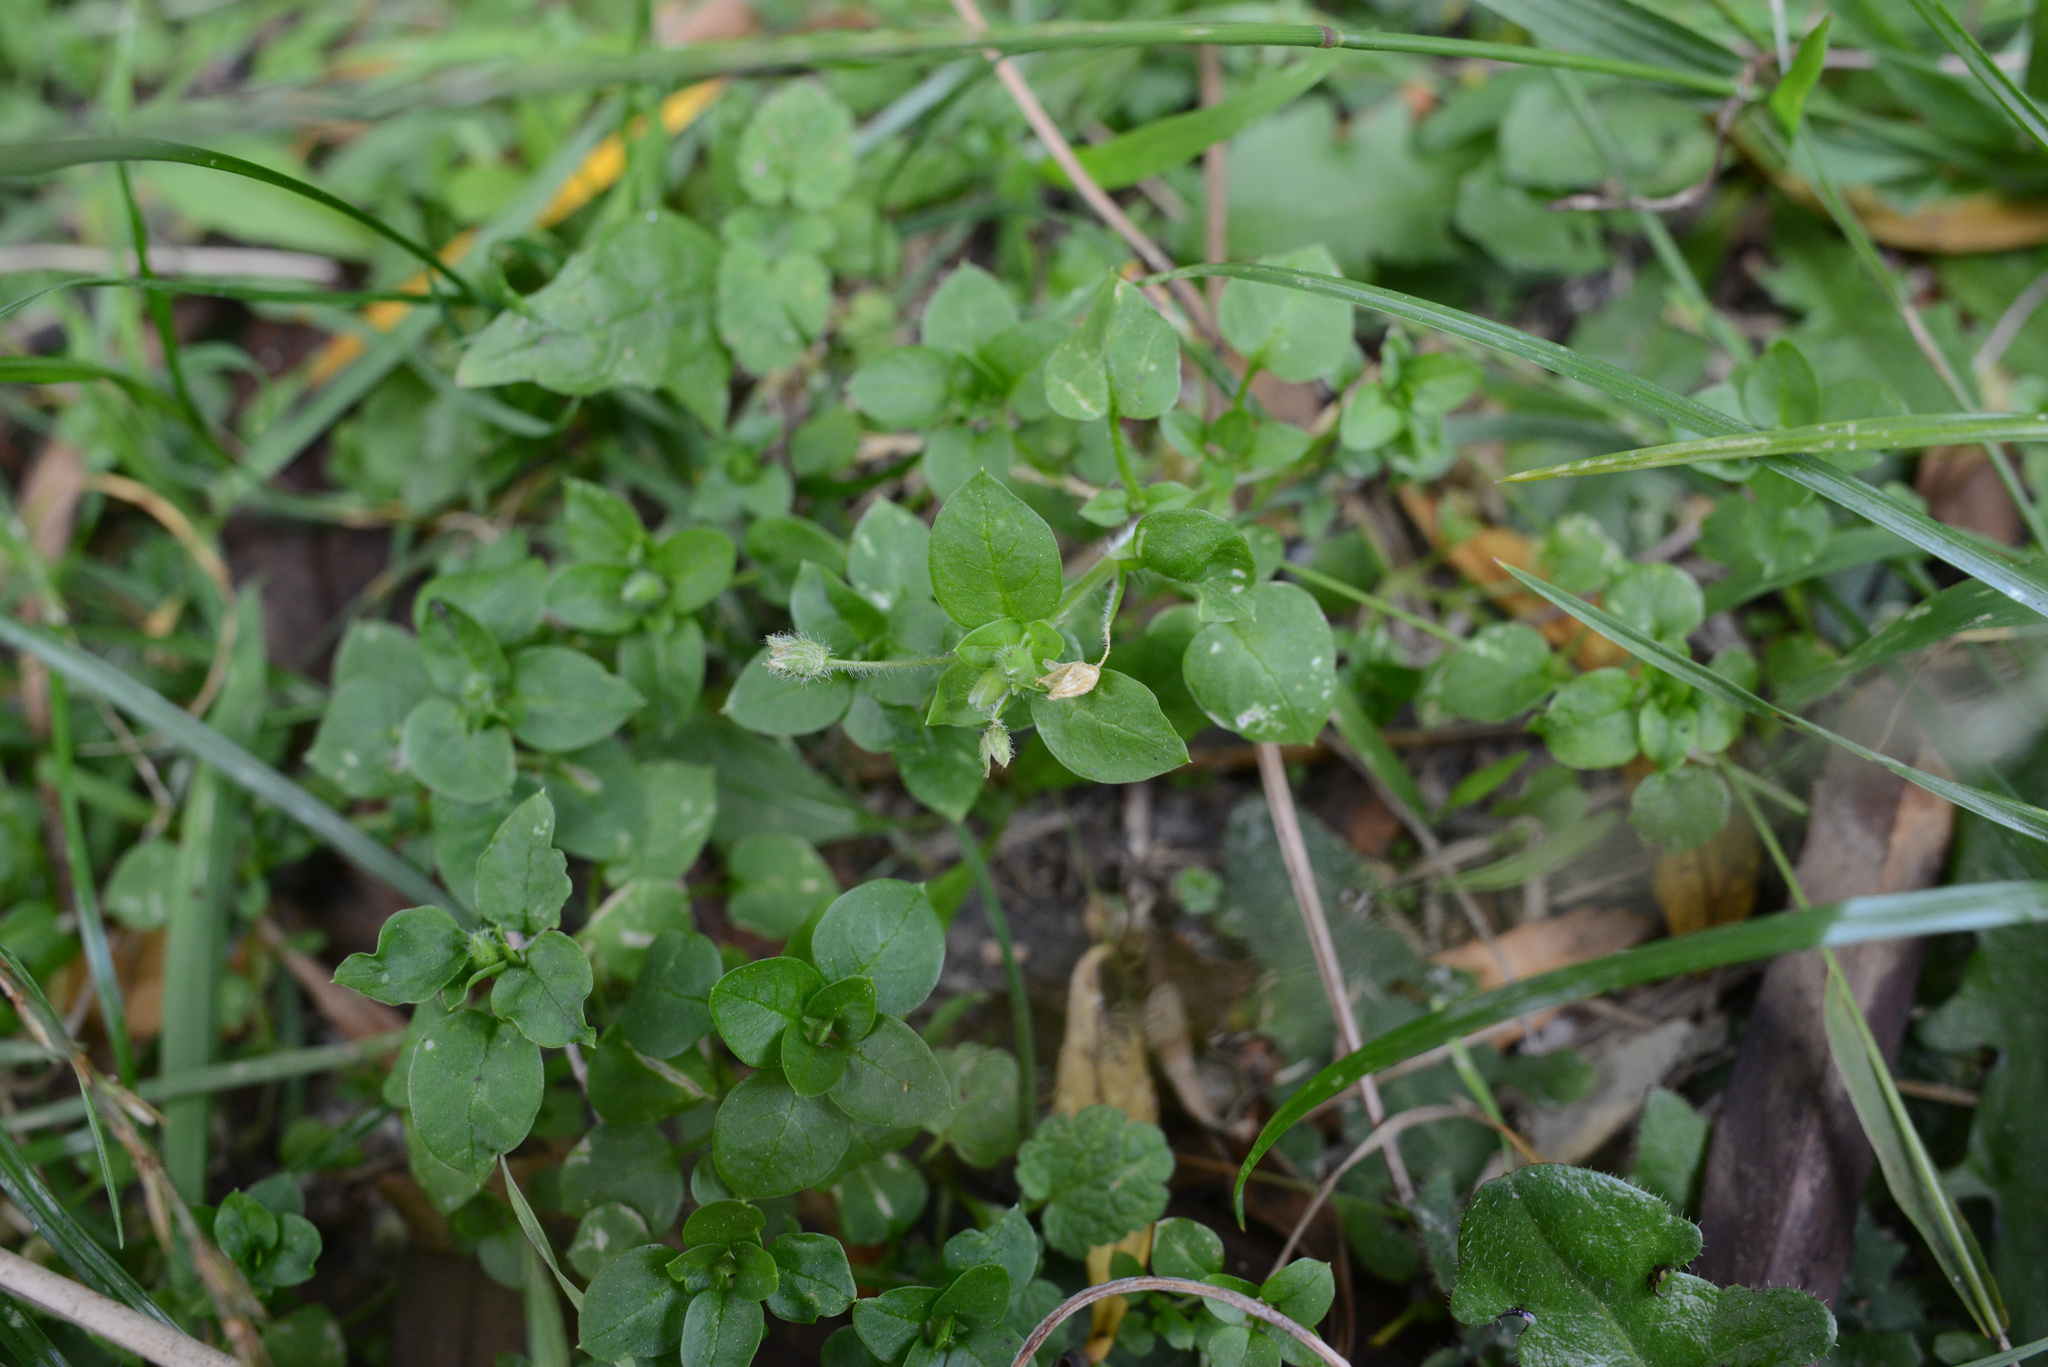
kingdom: Plantae
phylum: Tracheophyta
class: Magnoliopsida
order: Caryophyllales
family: Caryophyllaceae
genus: Stellaria
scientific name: Stellaria media
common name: Common chickweed
